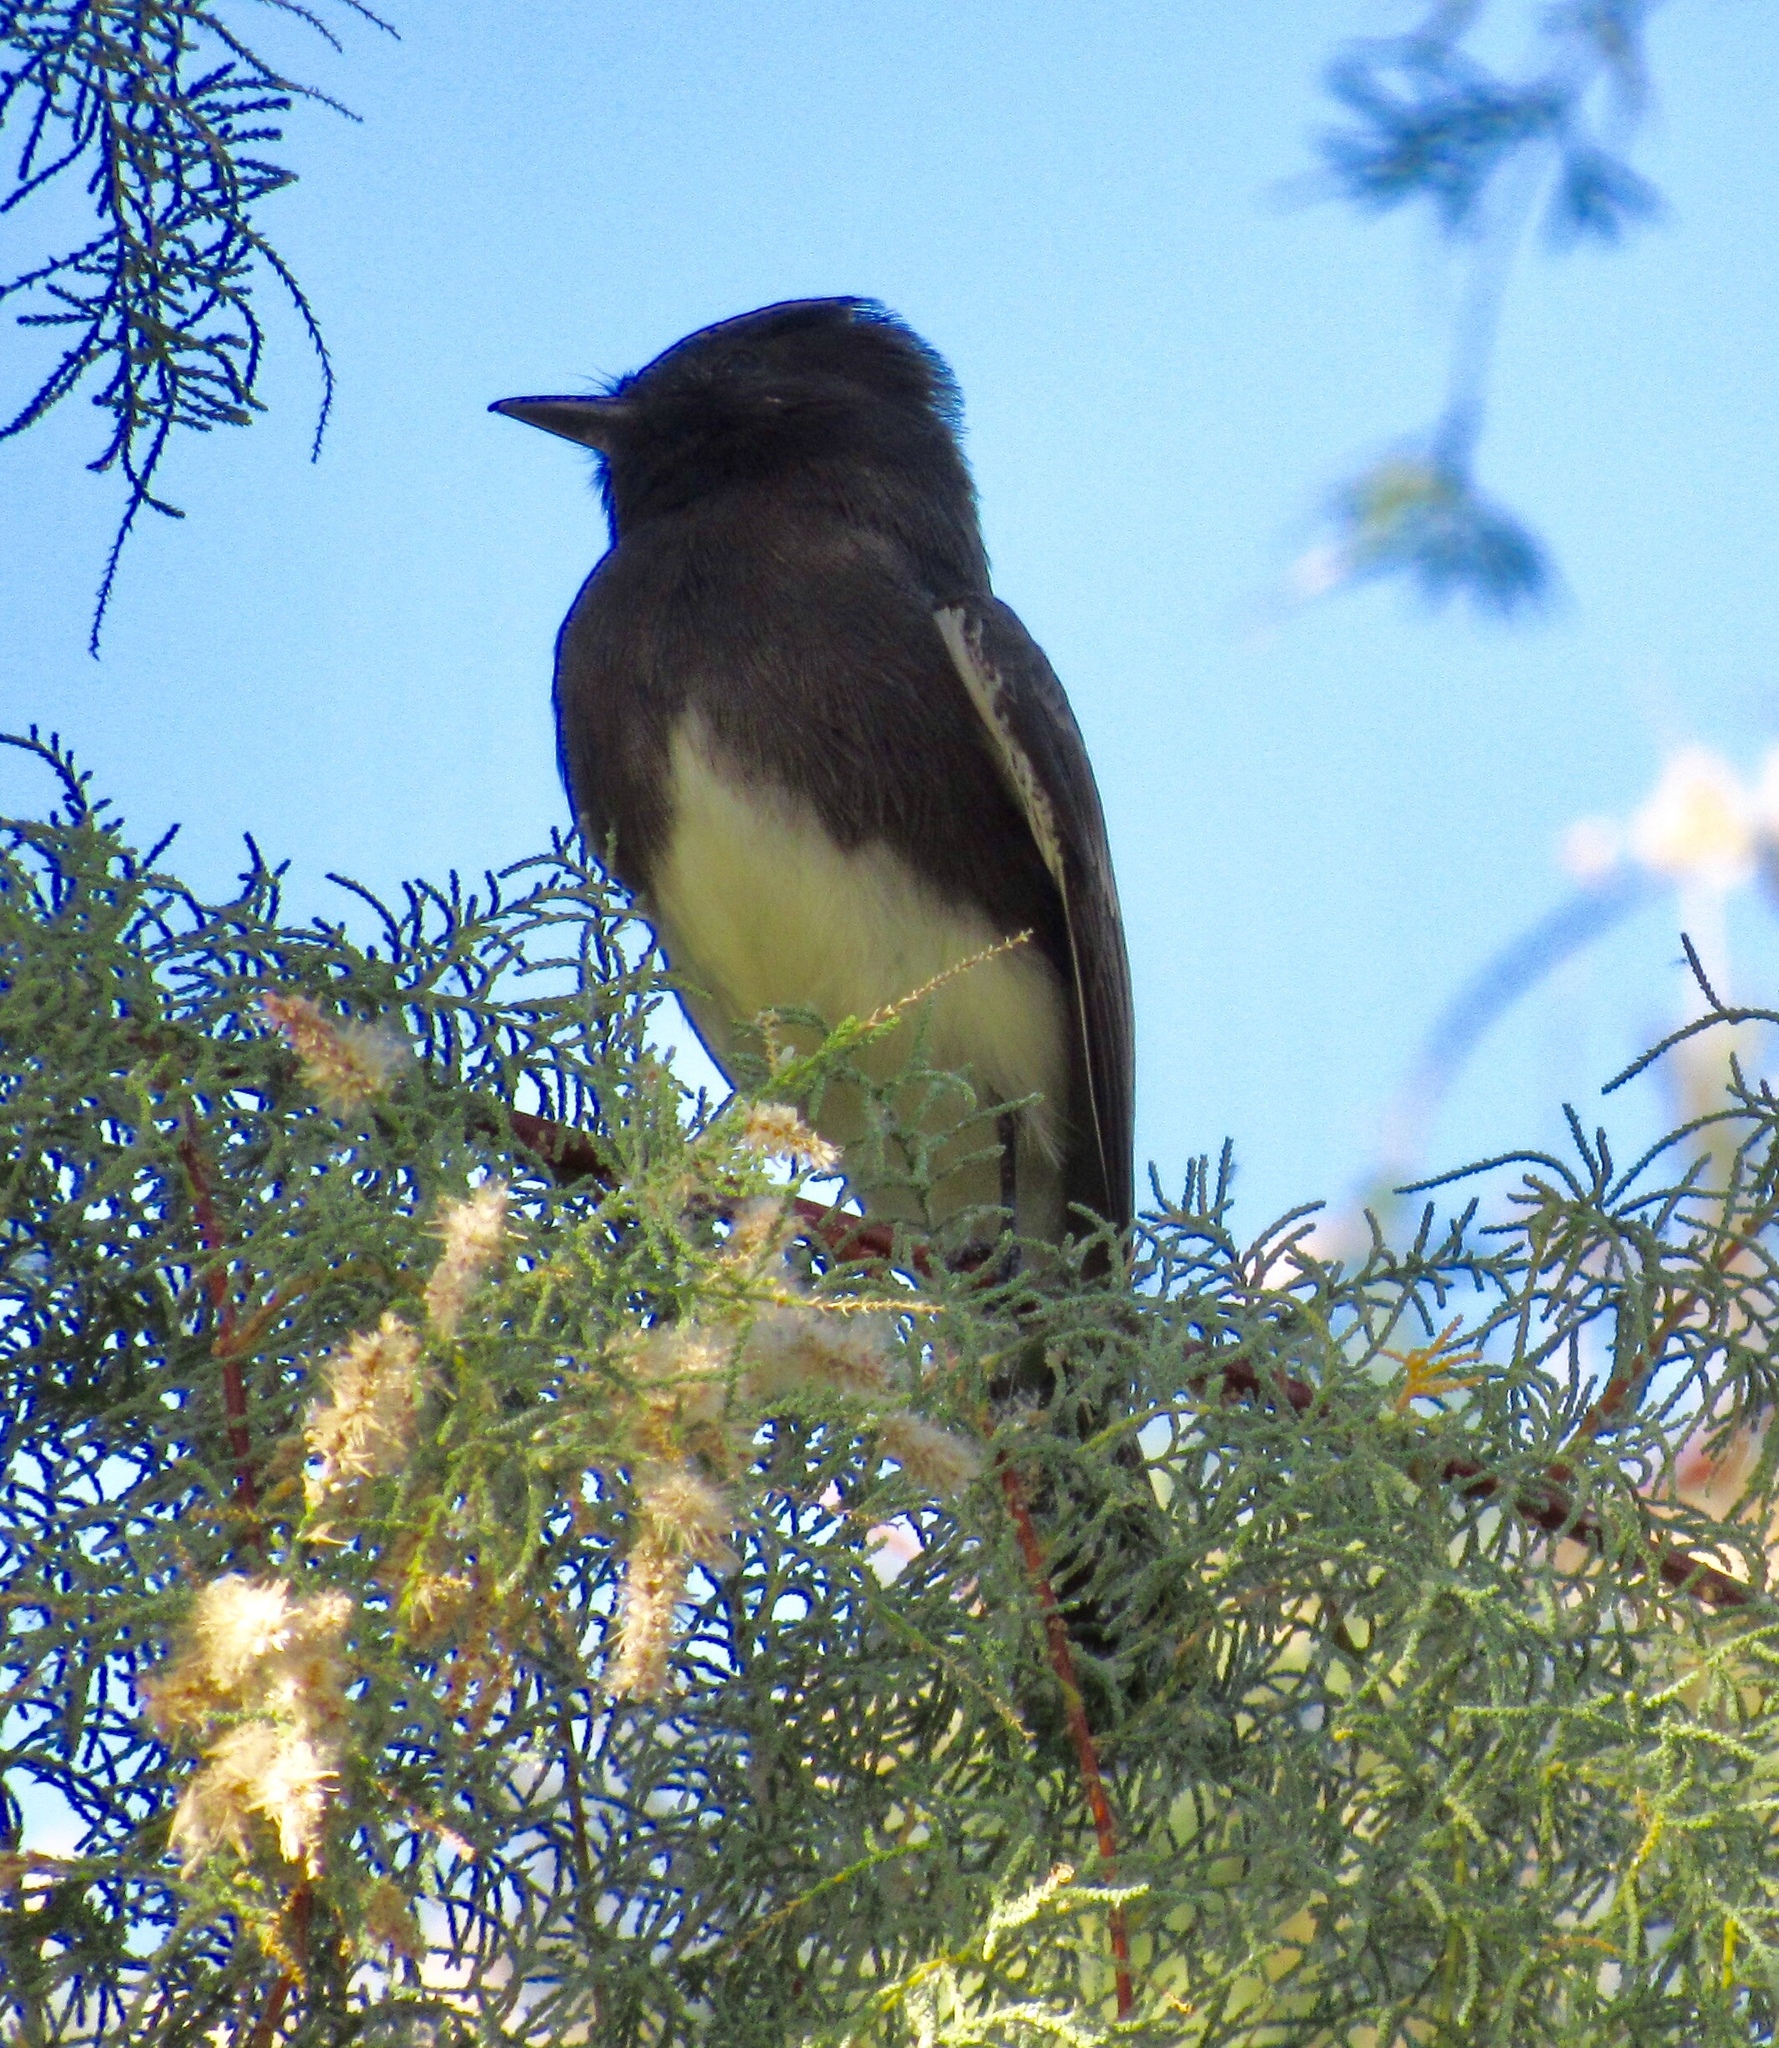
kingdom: Animalia
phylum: Chordata
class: Aves
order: Passeriformes
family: Tyrannidae
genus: Sayornis
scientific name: Sayornis nigricans
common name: Black phoebe
